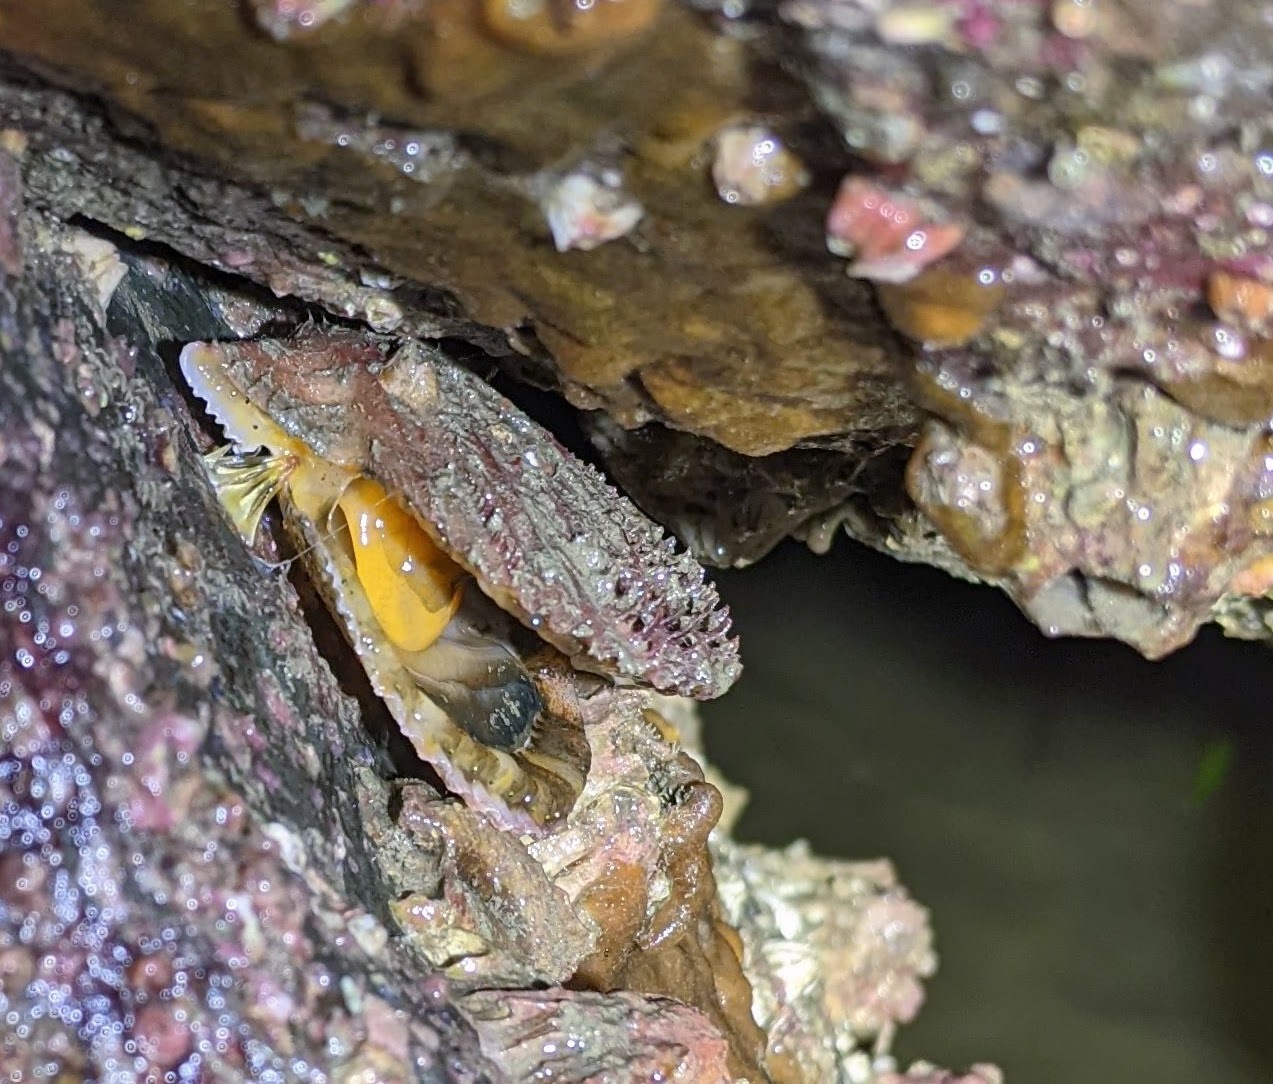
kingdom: Animalia
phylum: Mollusca
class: Bivalvia
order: Pectinida
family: Pectinidae
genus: Chlamys
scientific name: Chlamys hastata
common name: Spear scallop
